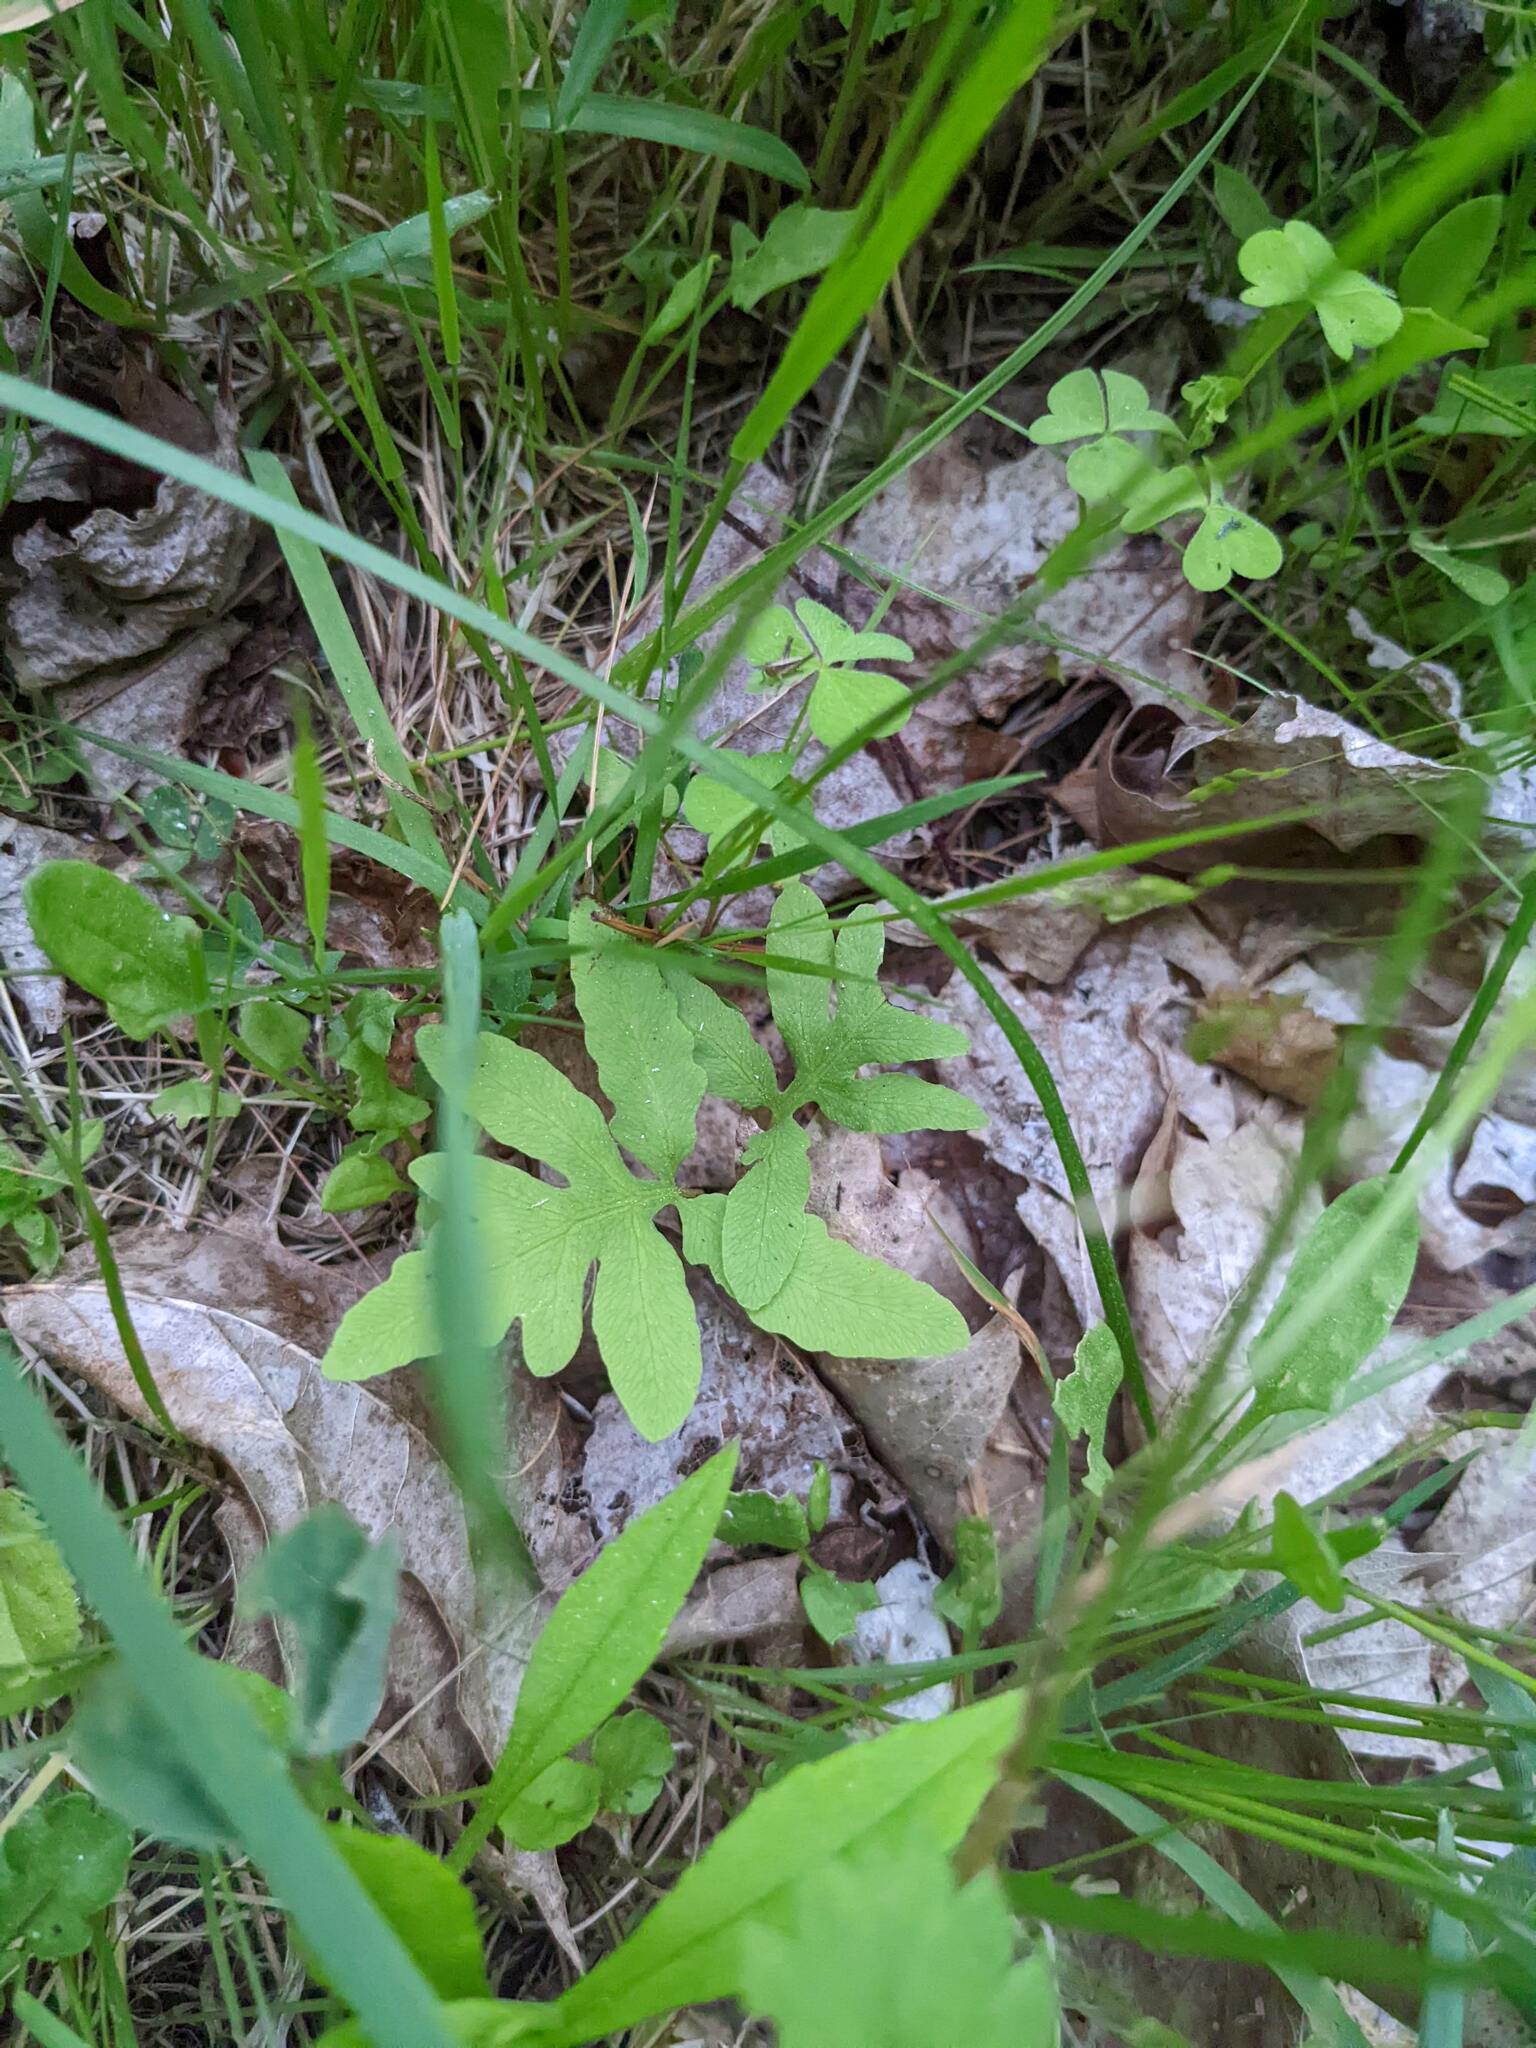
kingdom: Plantae
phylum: Tracheophyta
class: Polypodiopsida
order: Polypodiales
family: Onocleaceae
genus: Onoclea
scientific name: Onoclea sensibilis
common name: Sensitive fern
